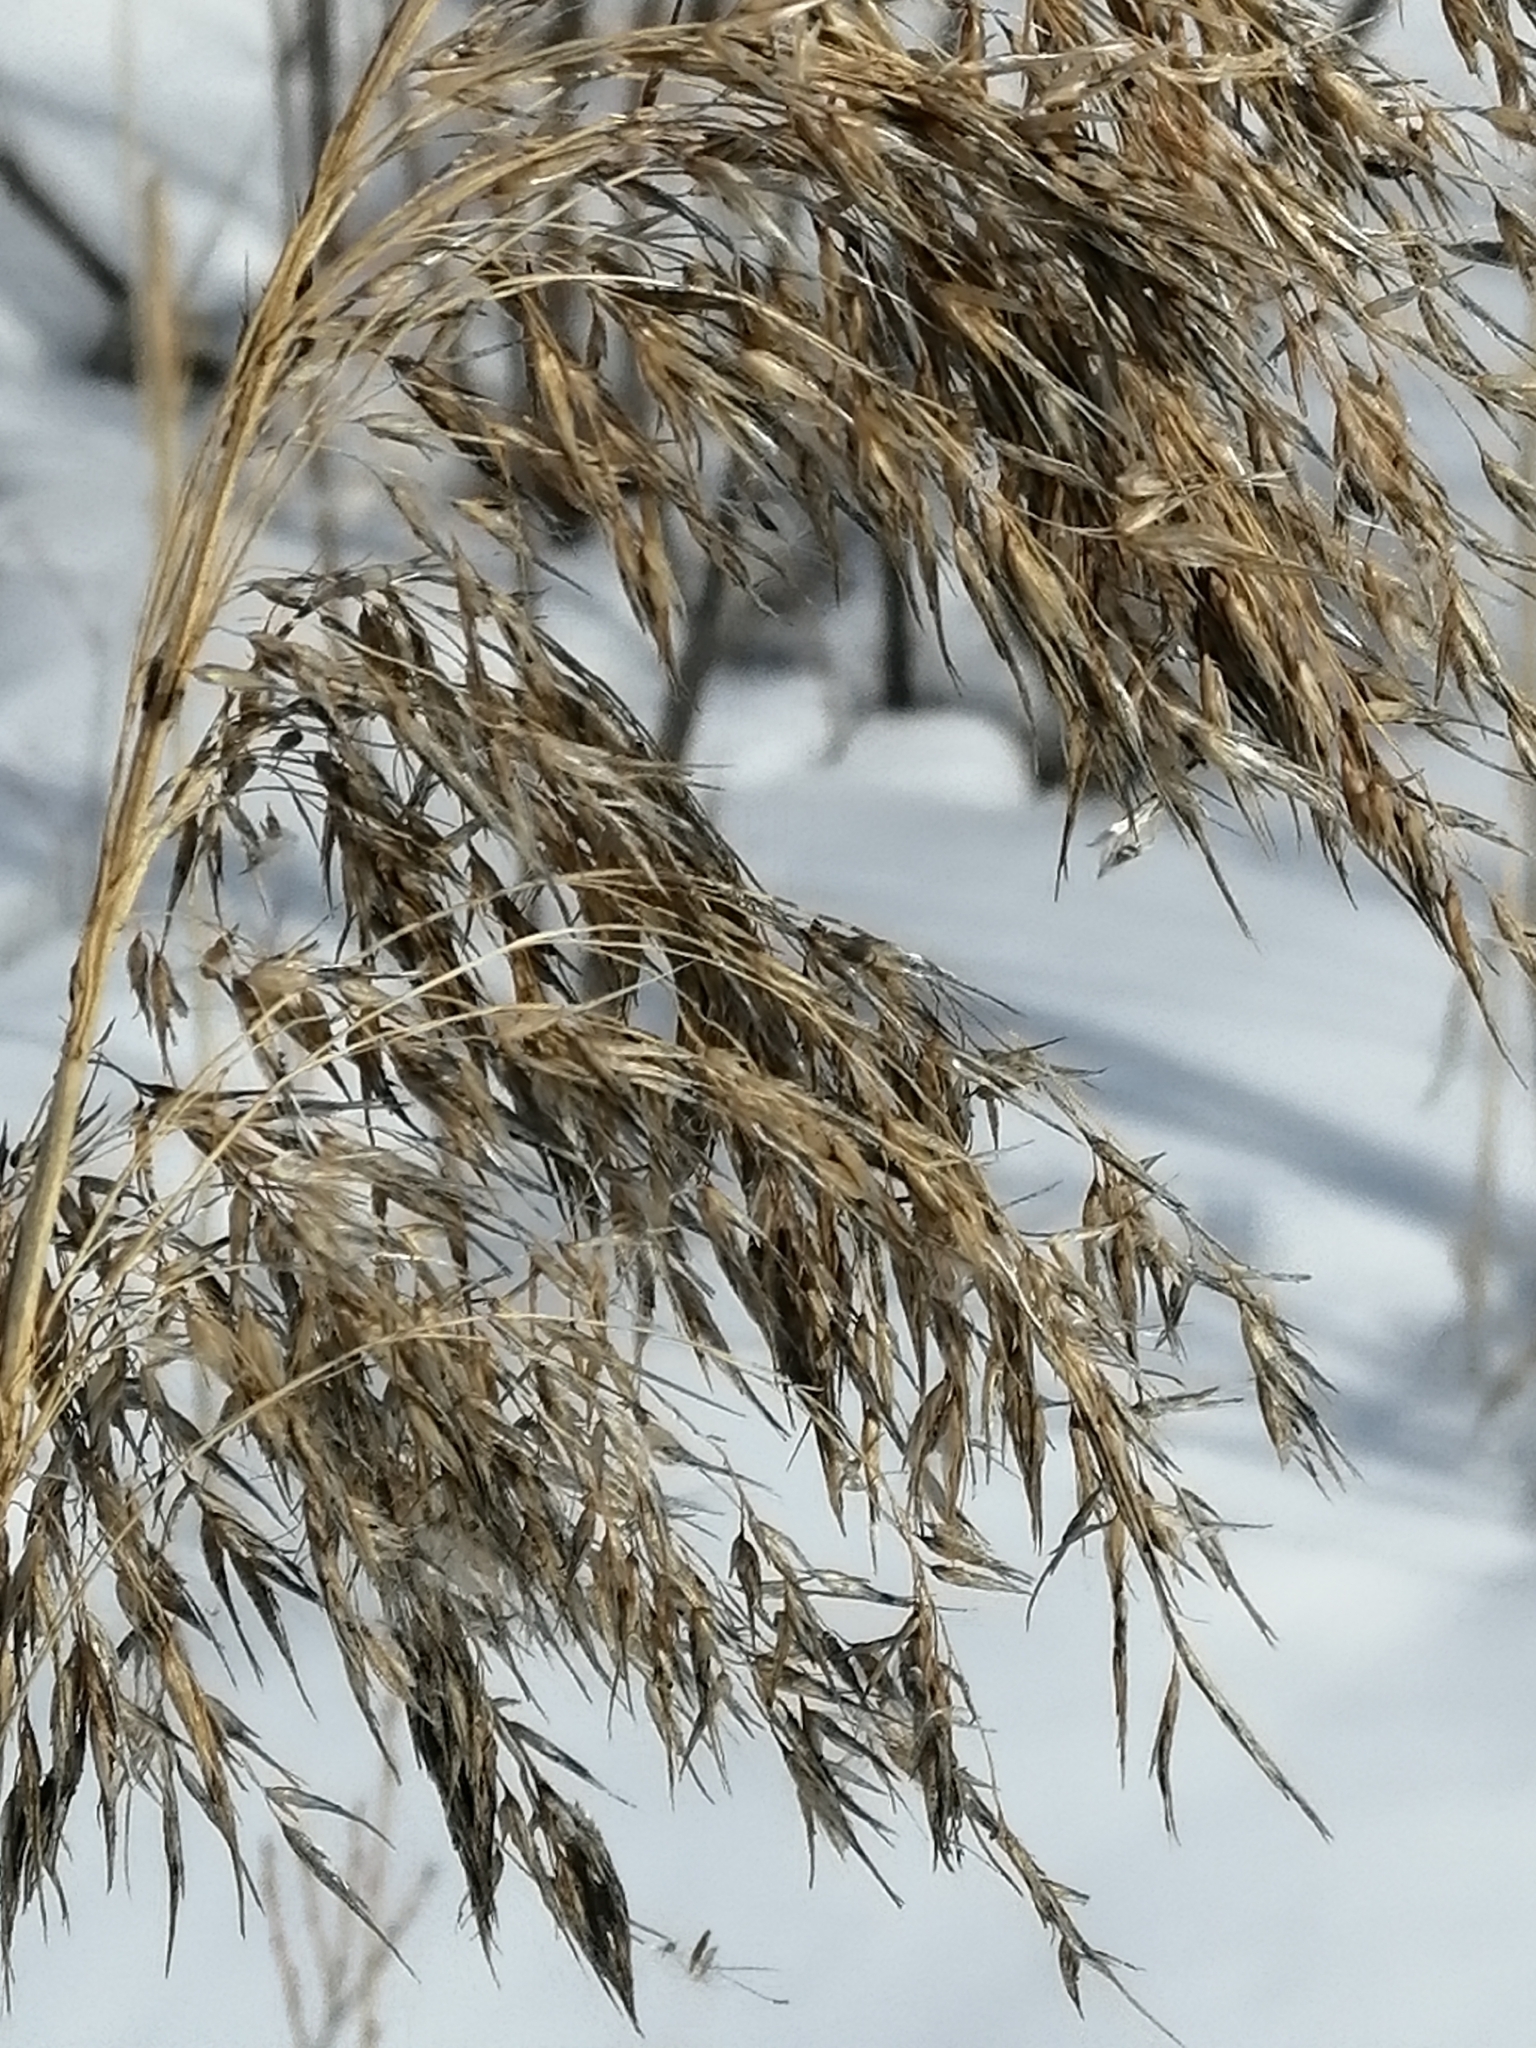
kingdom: Plantae
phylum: Tracheophyta
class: Liliopsida
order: Poales
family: Poaceae
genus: Phragmites
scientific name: Phragmites australis
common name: Common reed
